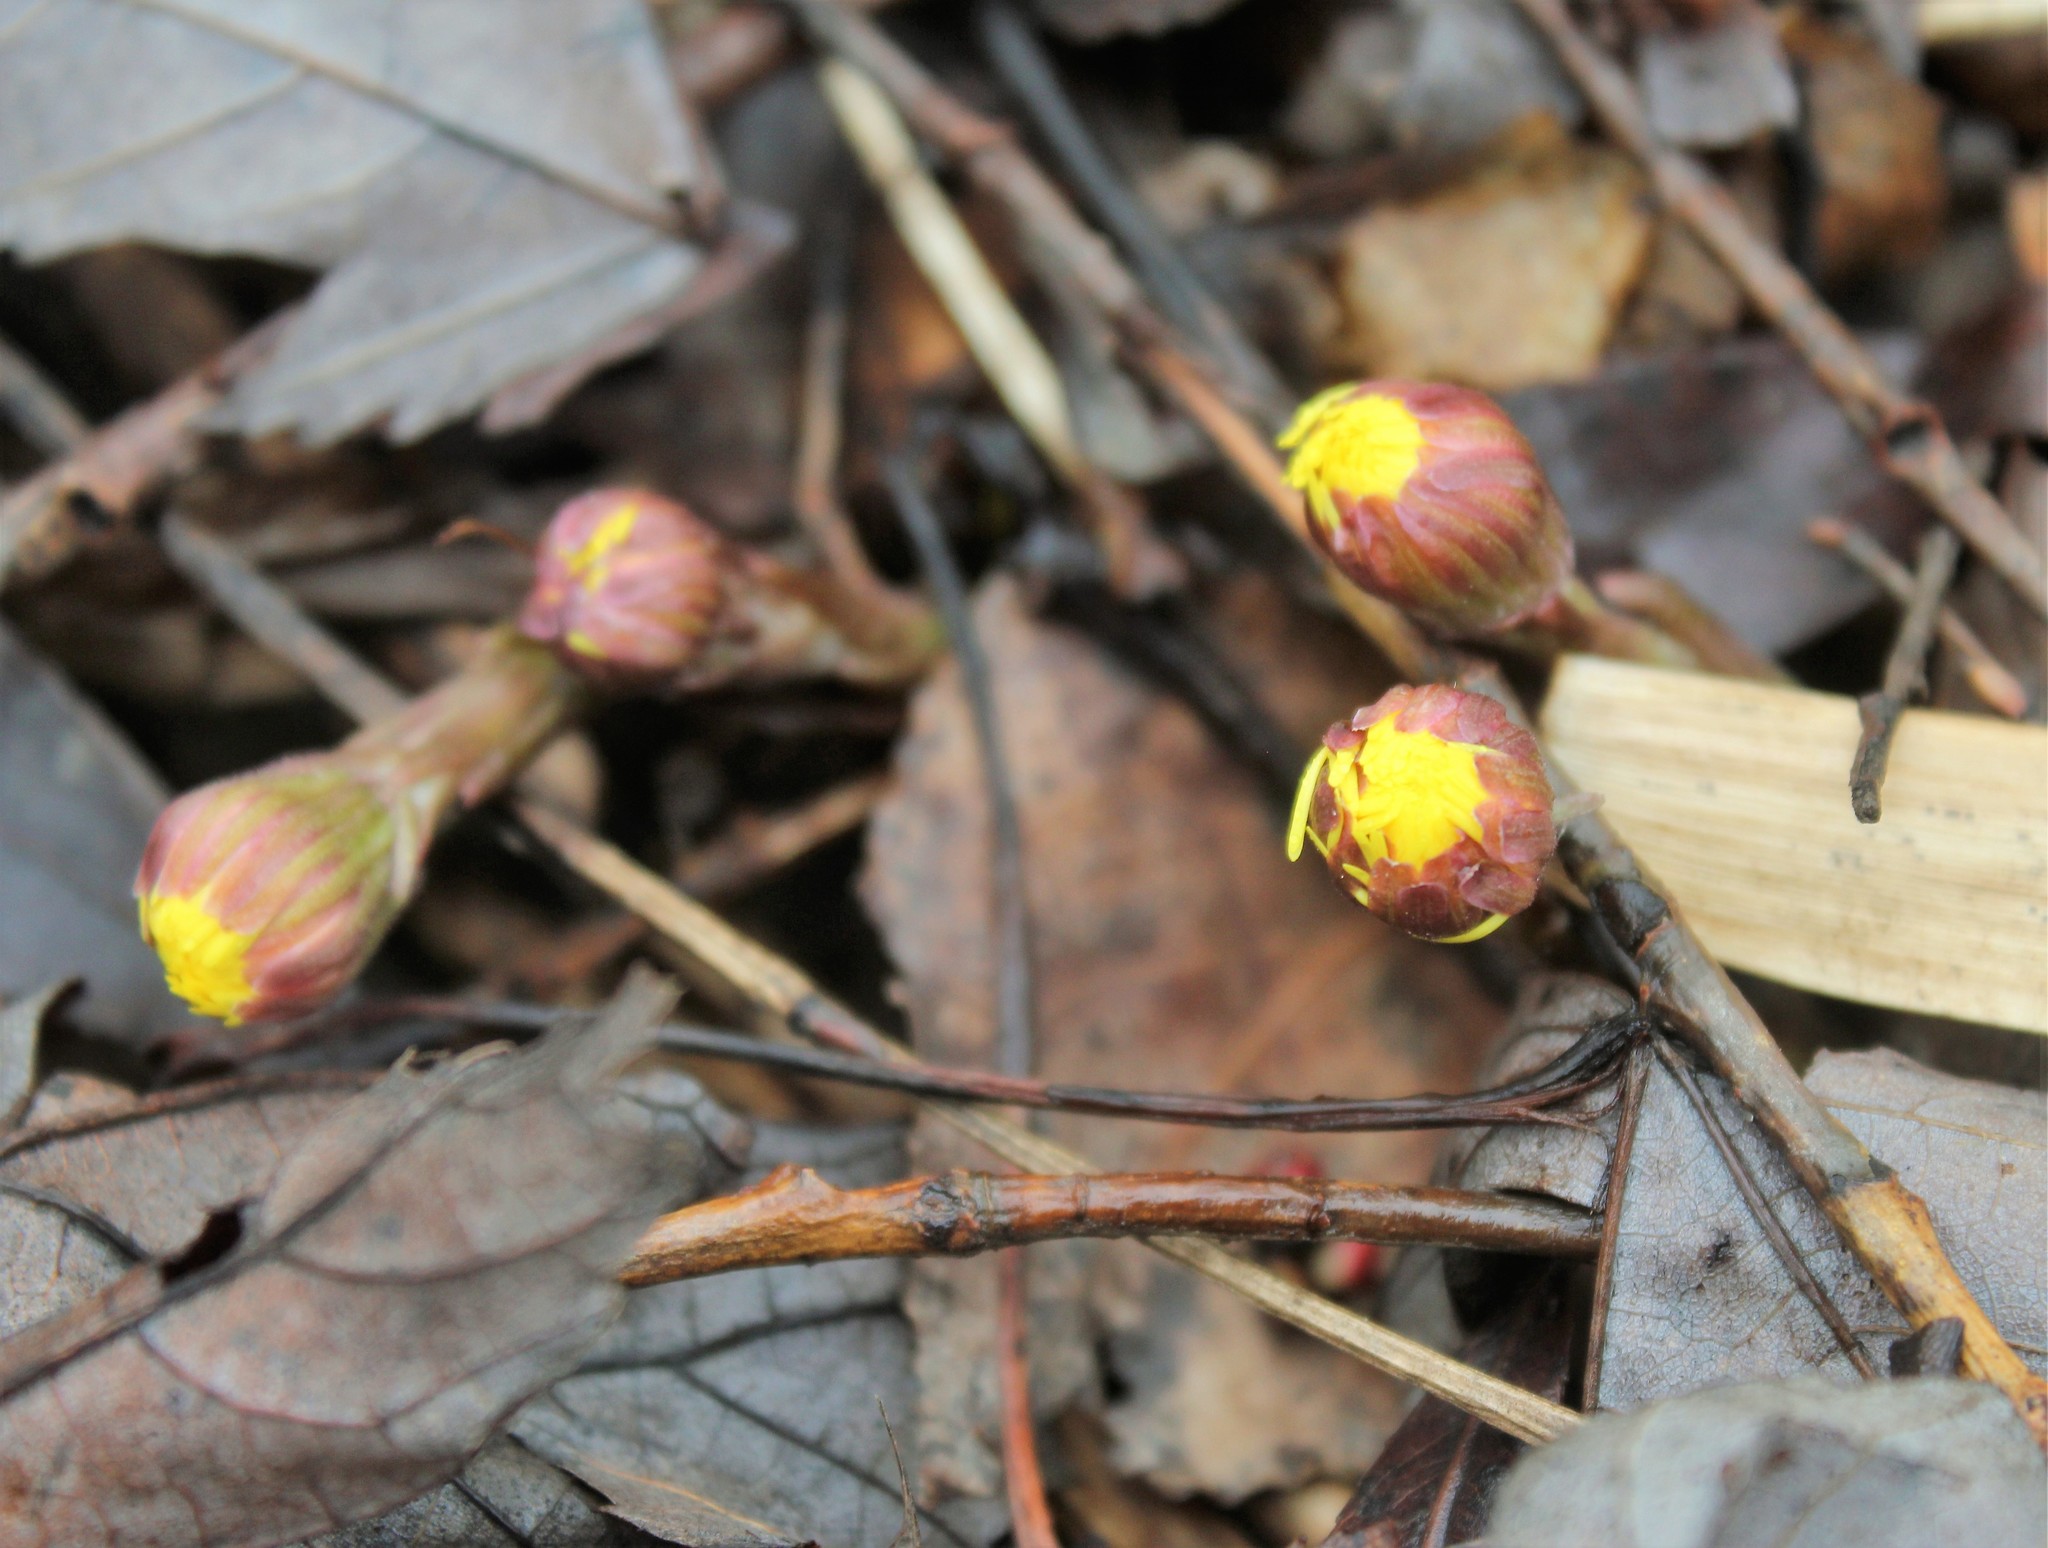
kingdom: Plantae
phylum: Tracheophyta
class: Magnoliopsida
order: Asterales
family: Asteraceae
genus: Tussilago
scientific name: Tussilago farfara
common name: Coltsfoot
